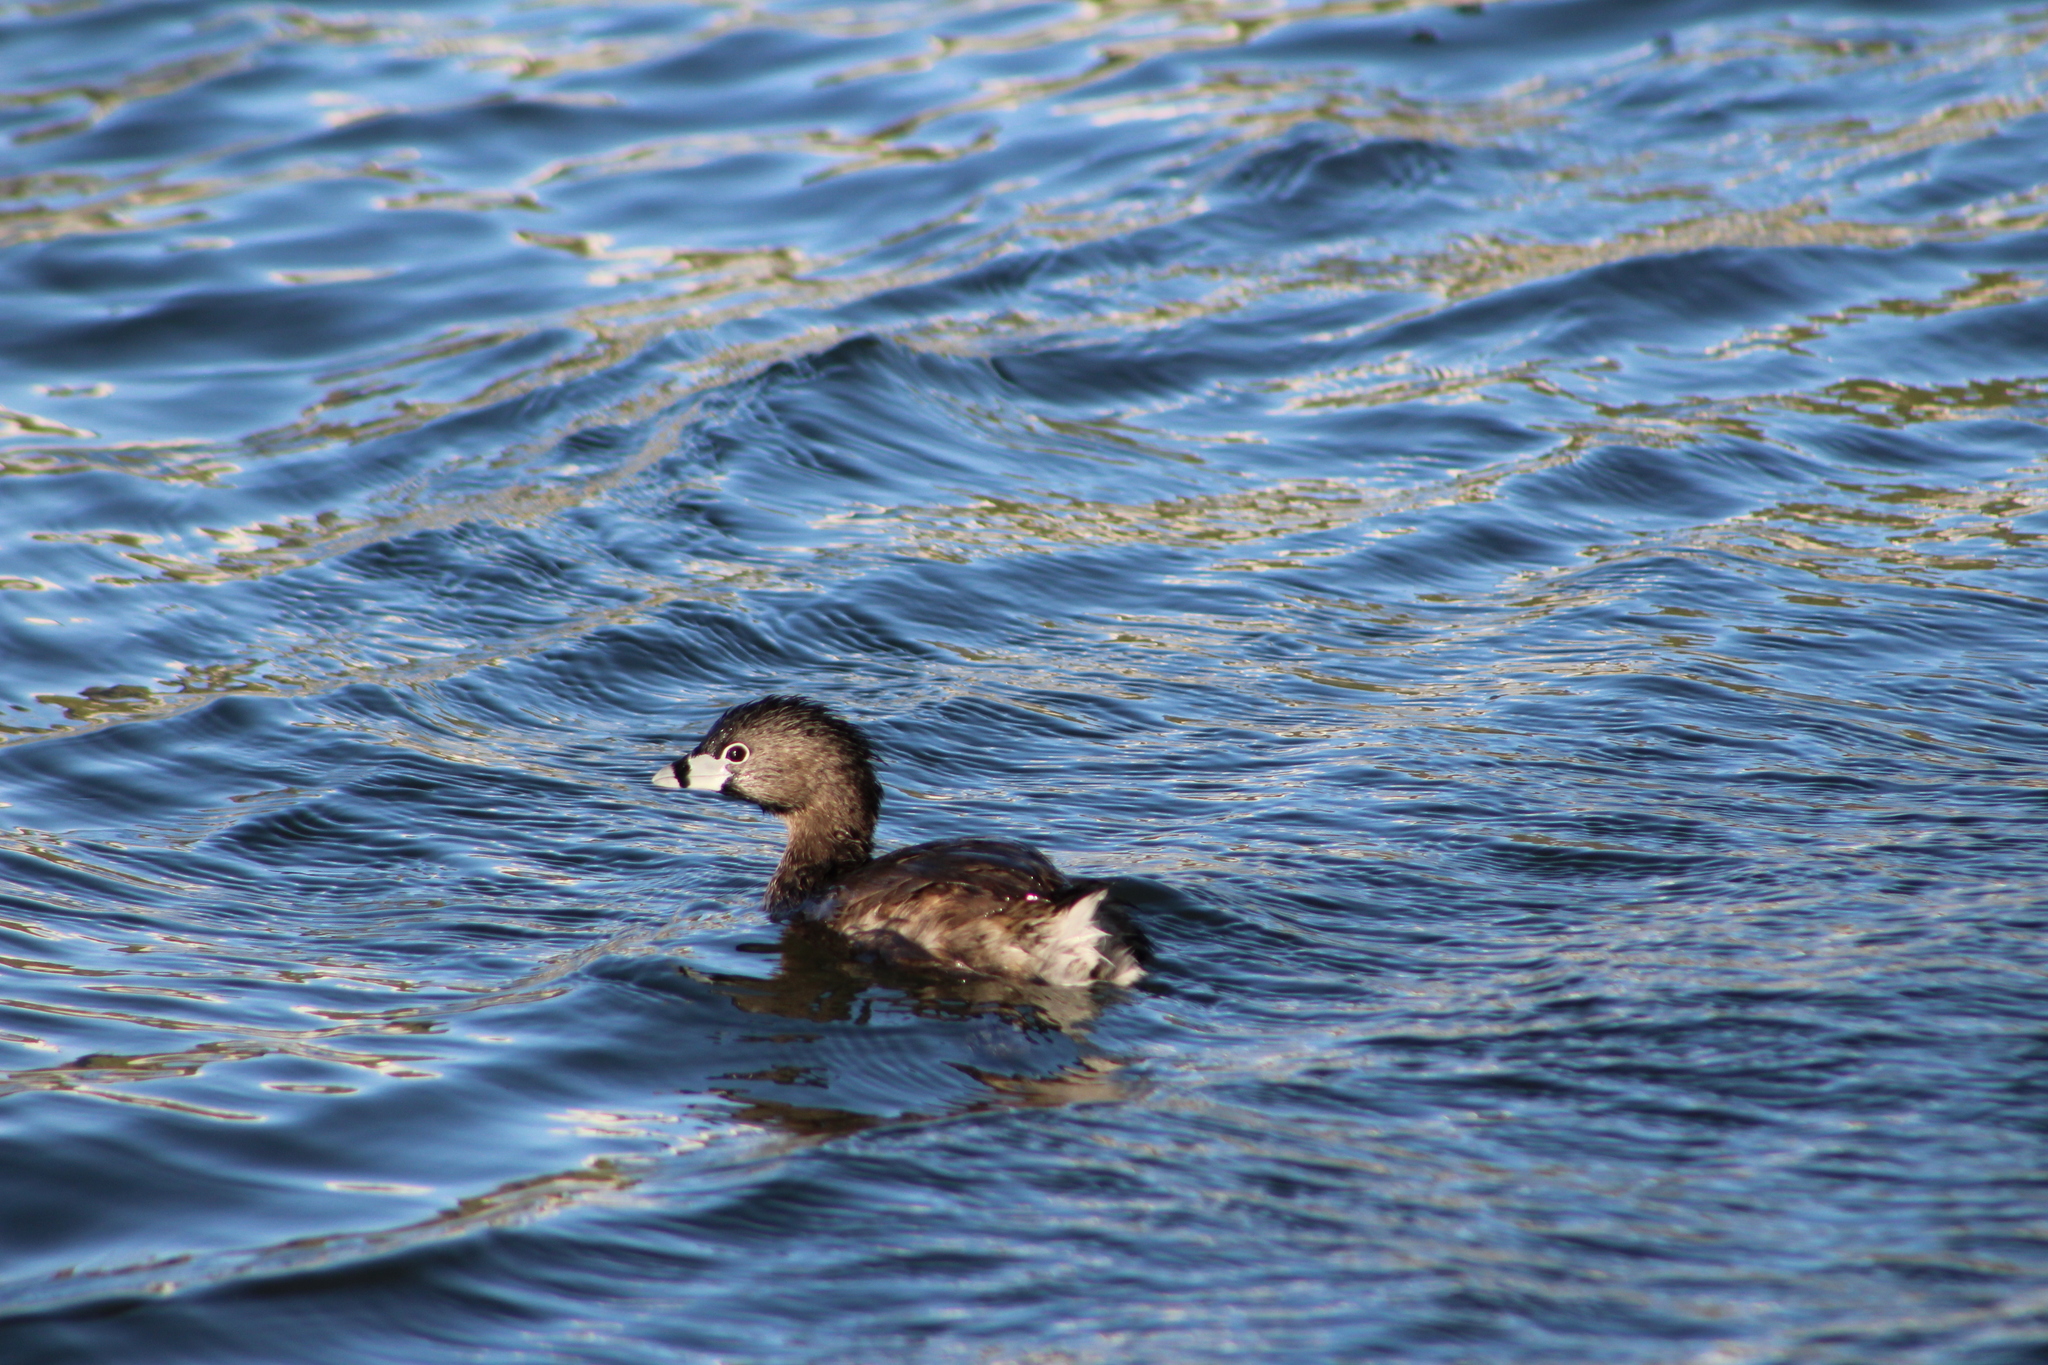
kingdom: Animalia
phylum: Chordata
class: Aves
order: Podicipediformes
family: Podicipedidae
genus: Podilymbus
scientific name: Podilymbus podiceps
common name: Pied-billed grebe
